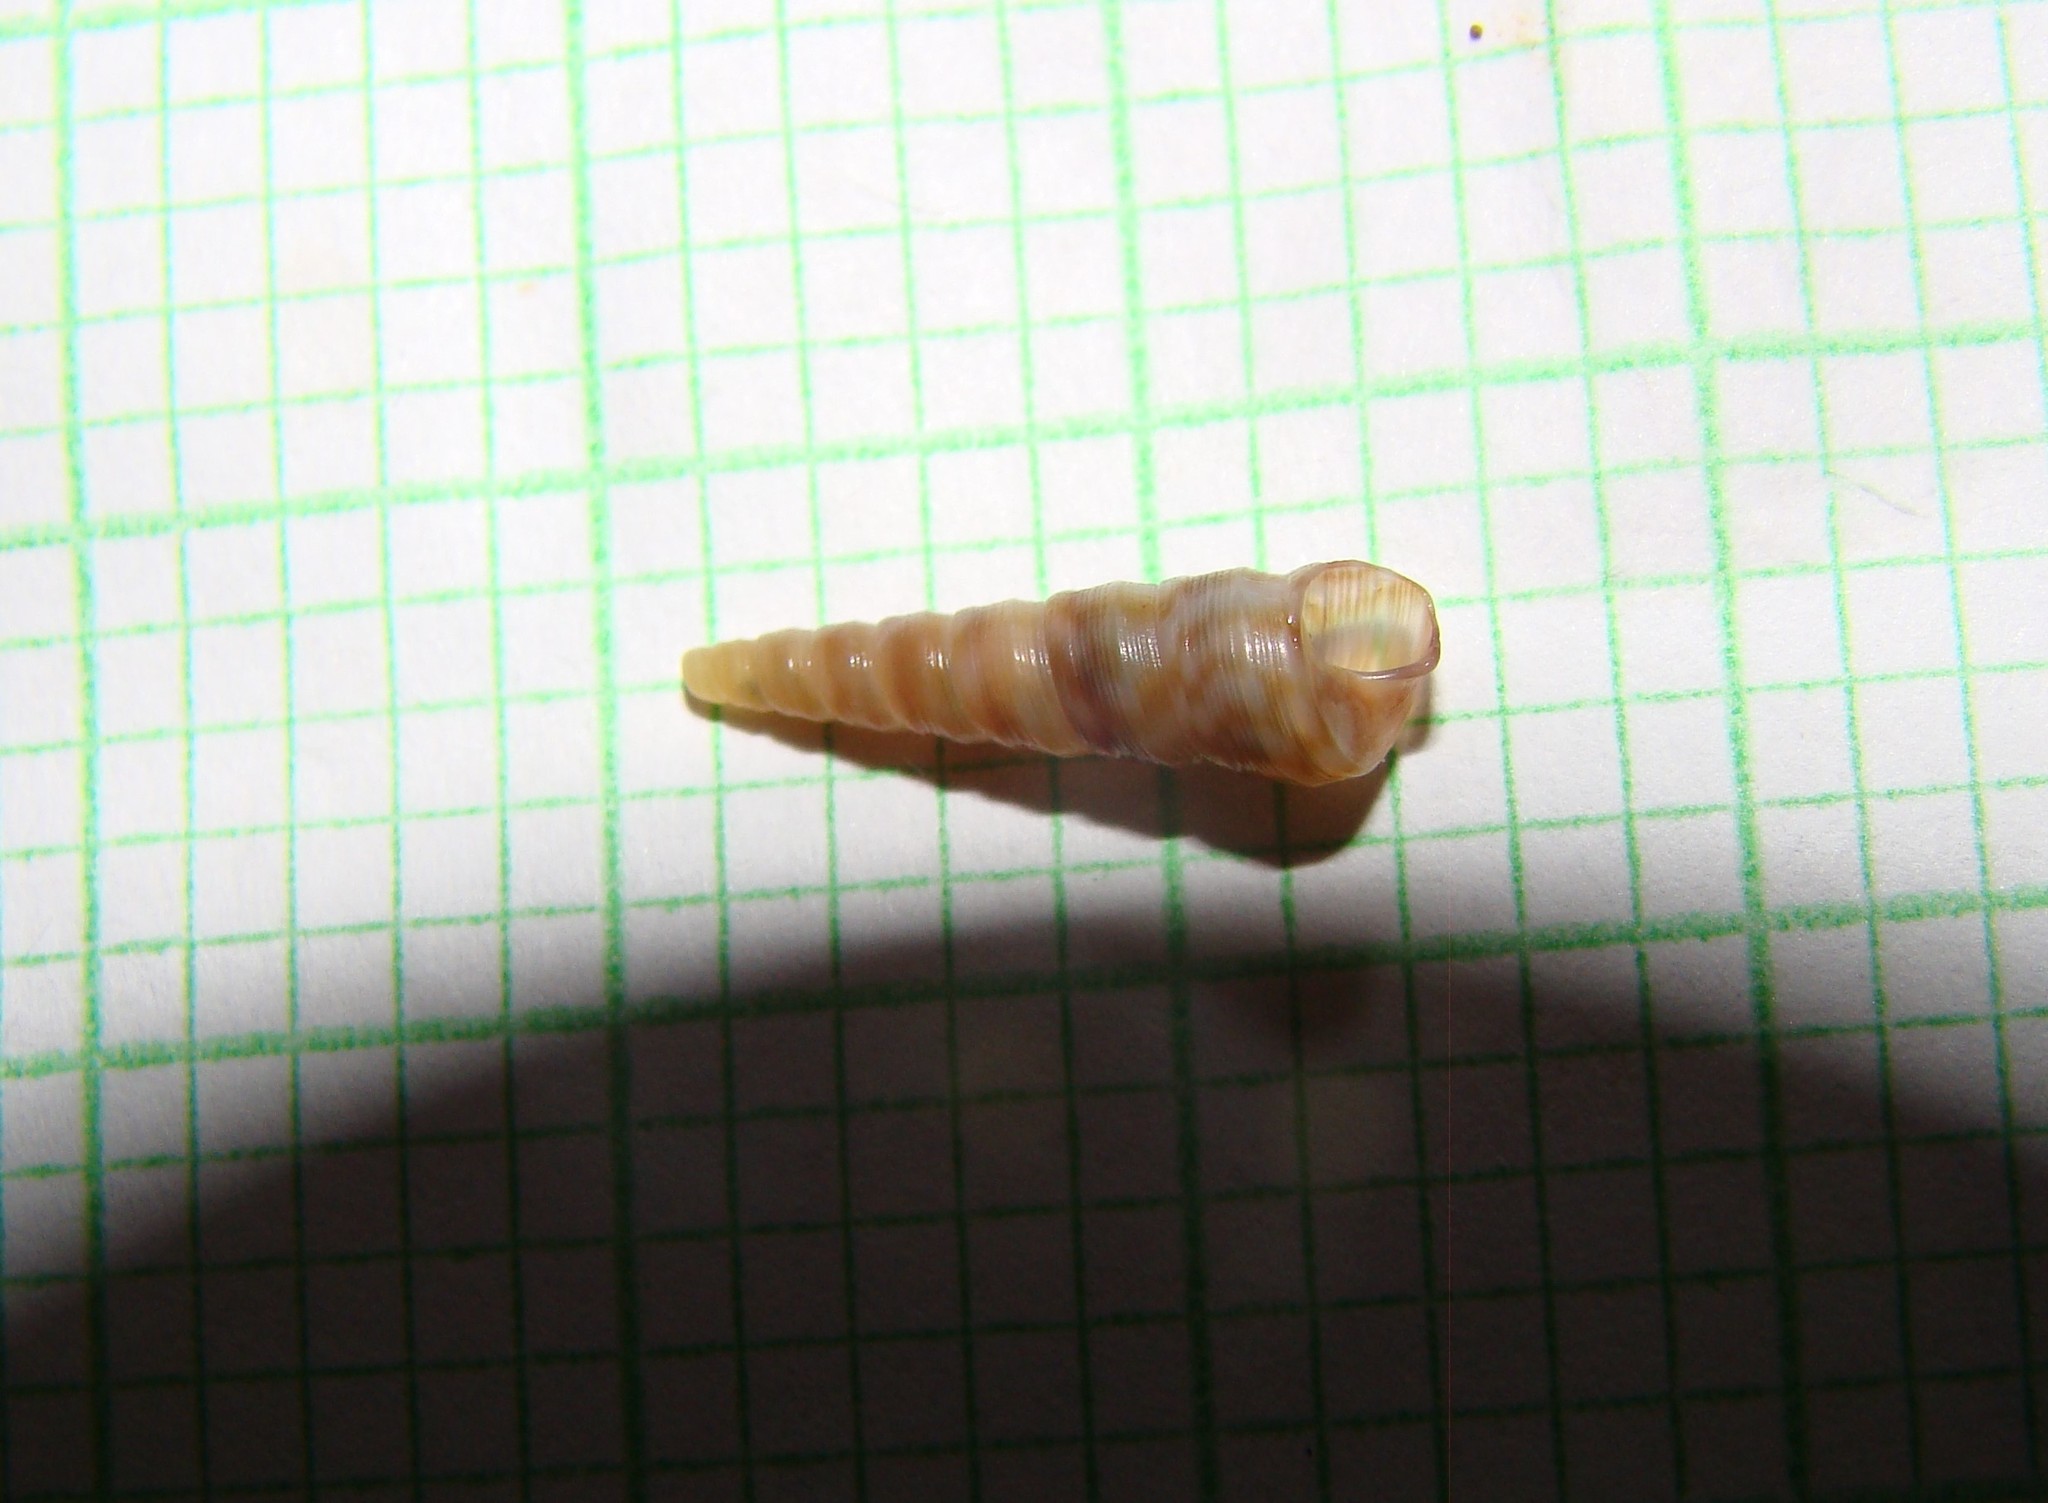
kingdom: Animalia
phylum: Mollusca
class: Gastropoda
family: Turritellidae
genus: Stiracolpus
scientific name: Stiracolpus pagoda
